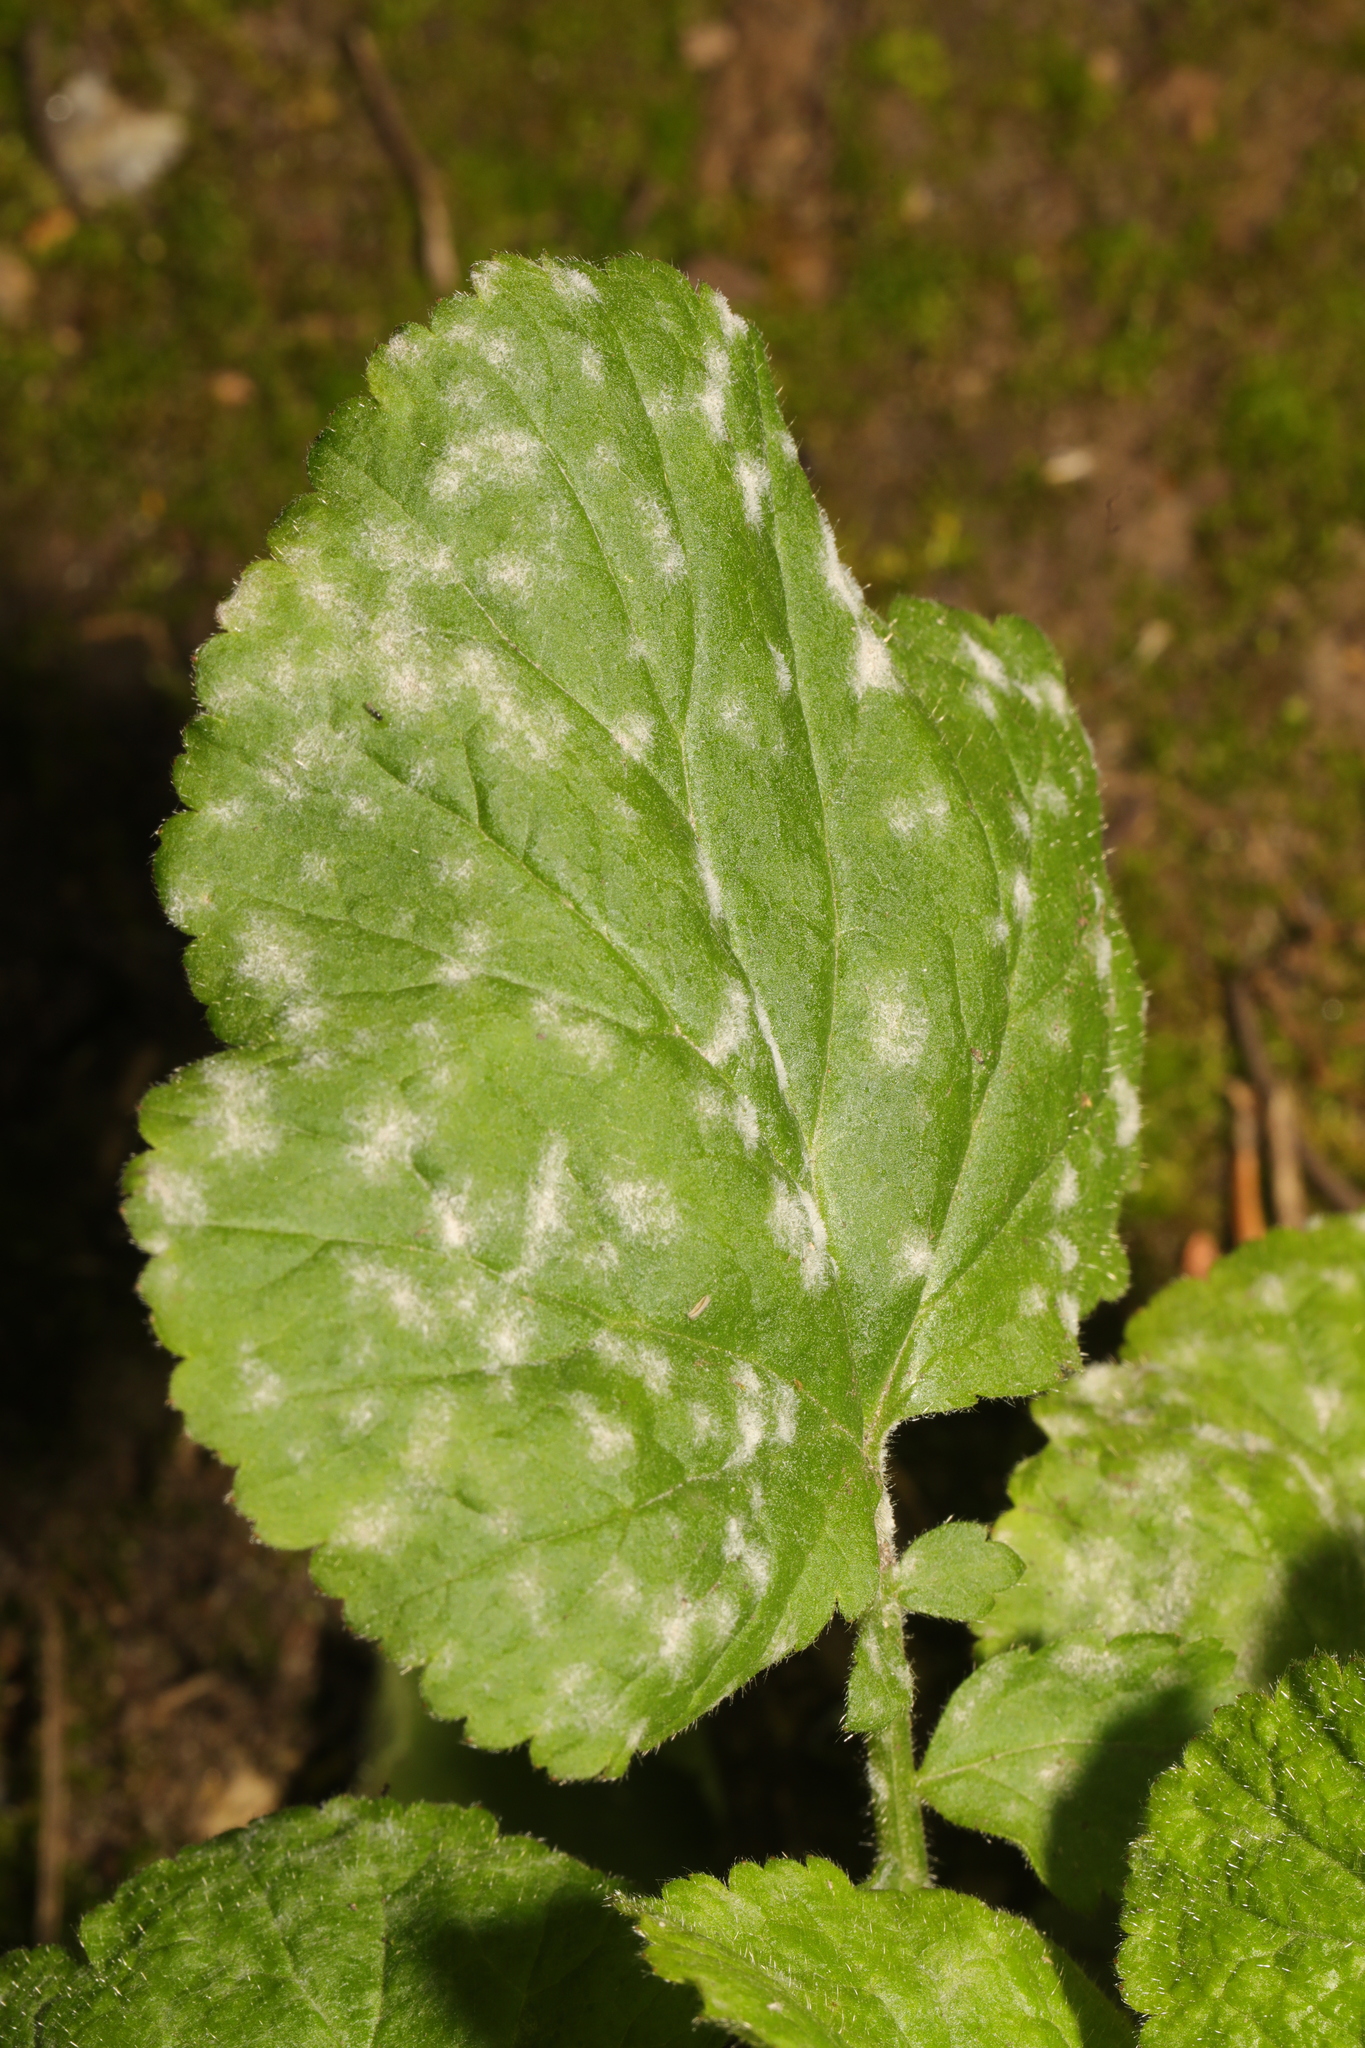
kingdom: Fungi
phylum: Ascomycota
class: Leotiomycetes
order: Helotiales
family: Erysiphaceae
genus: Podosphaera
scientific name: Podosphaera aphanis
